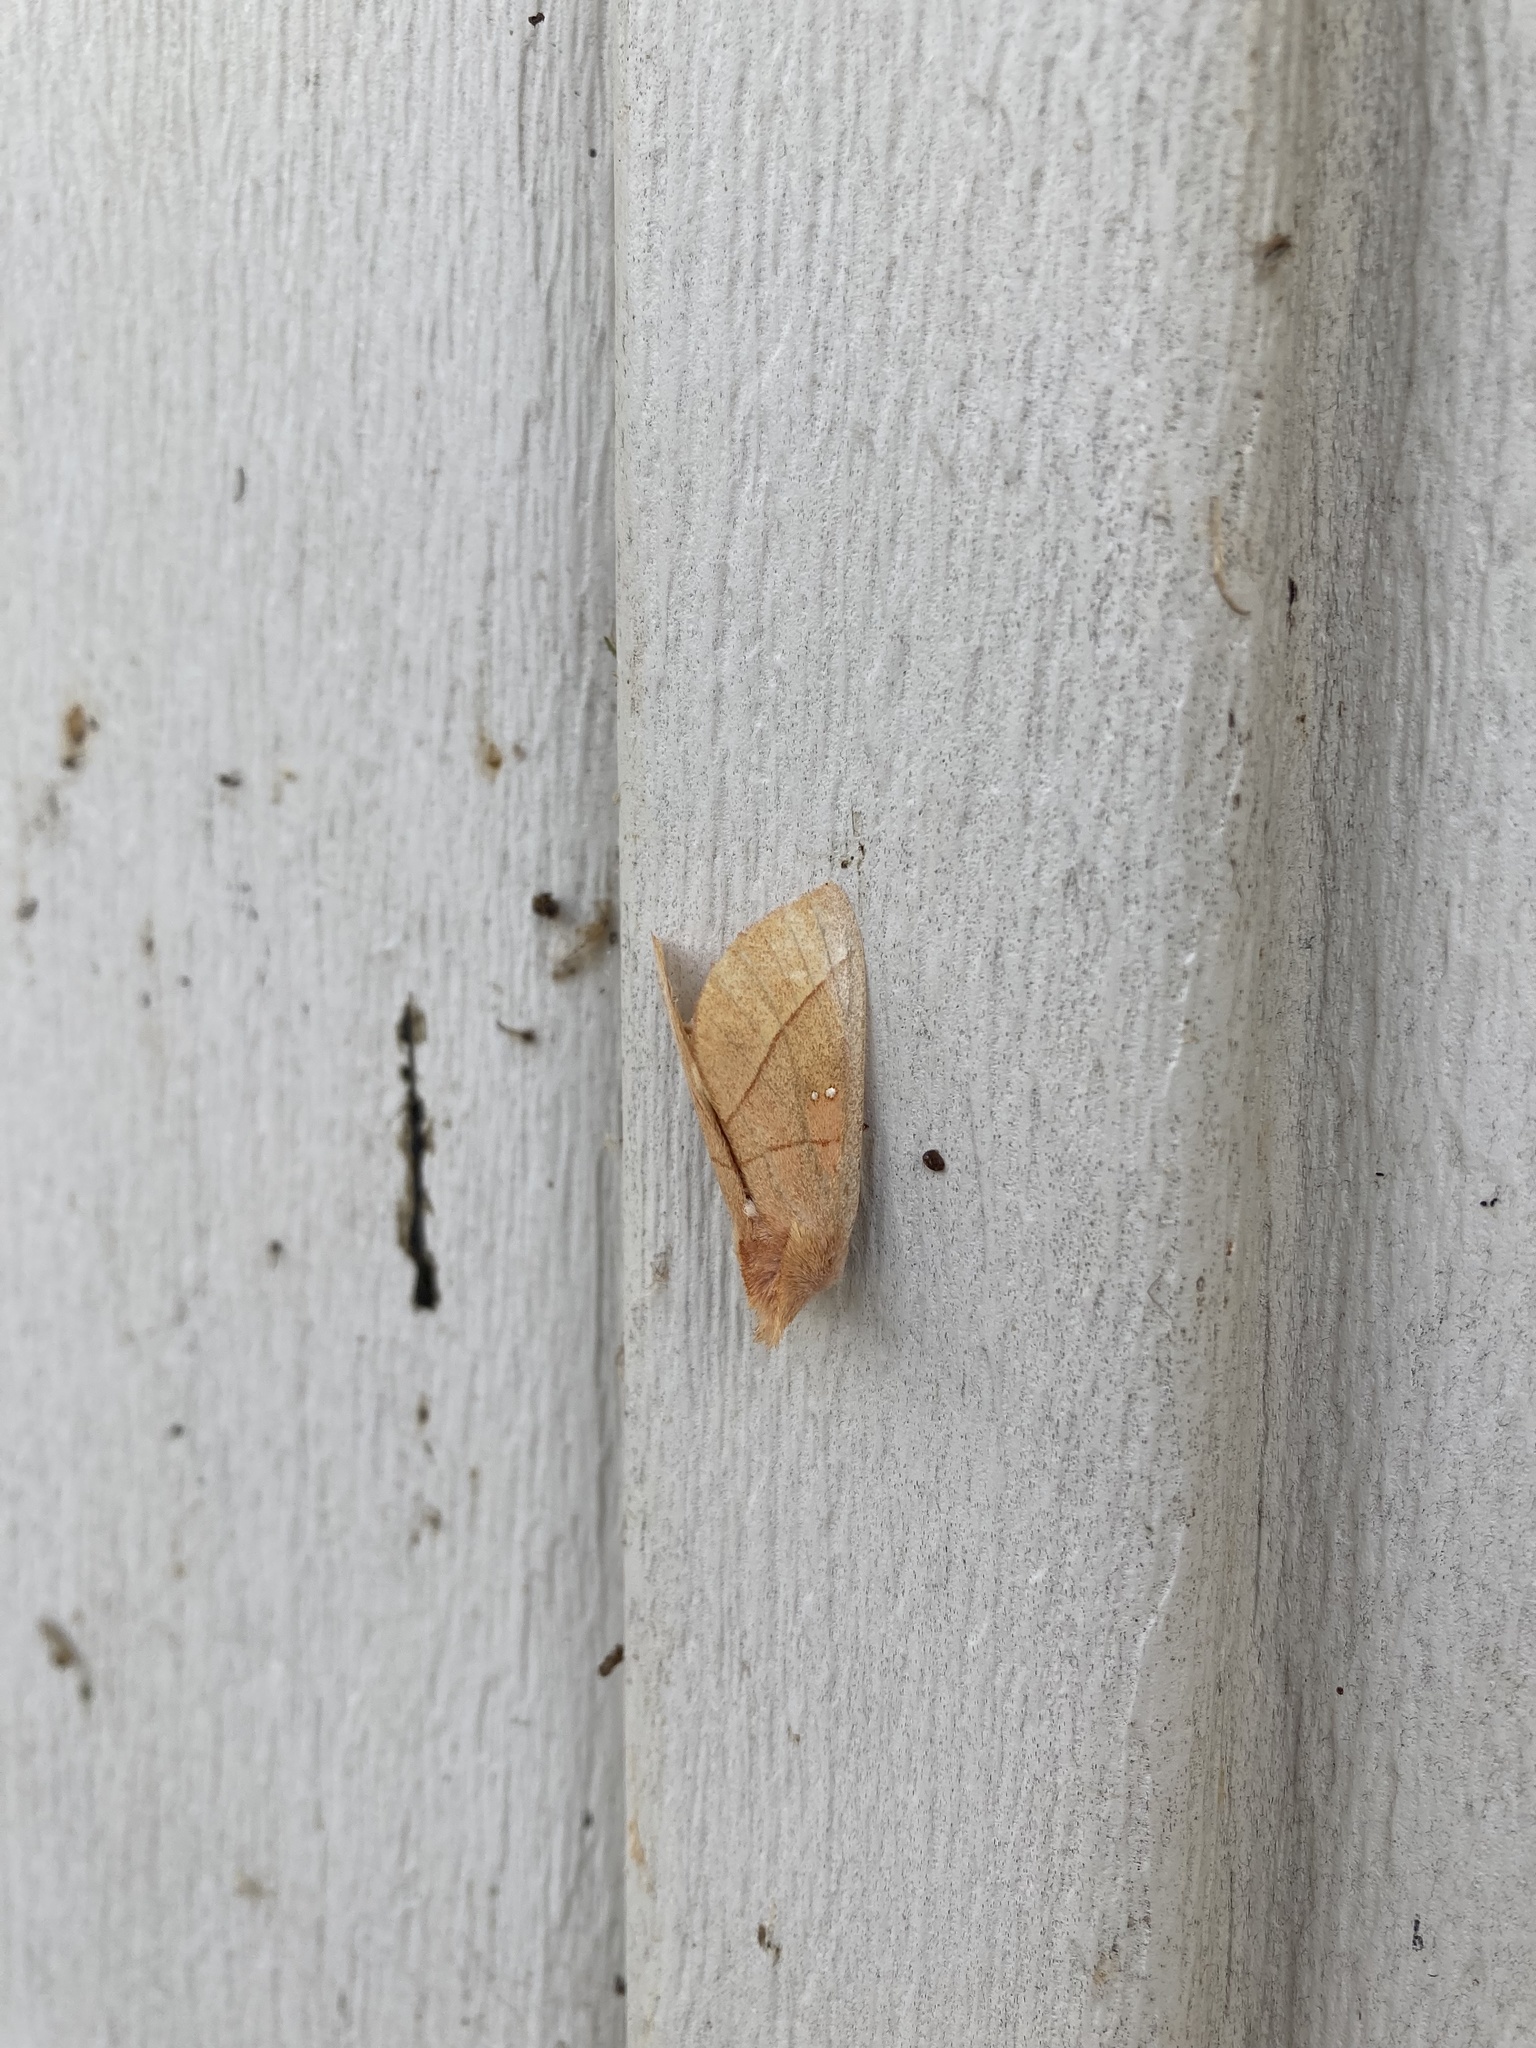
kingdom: Animalia
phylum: Arthropoda
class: Insecta
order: Lepidoptera
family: Notodontidae
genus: Nadata
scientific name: Nadata gibbosa
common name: White-dotted prominent
